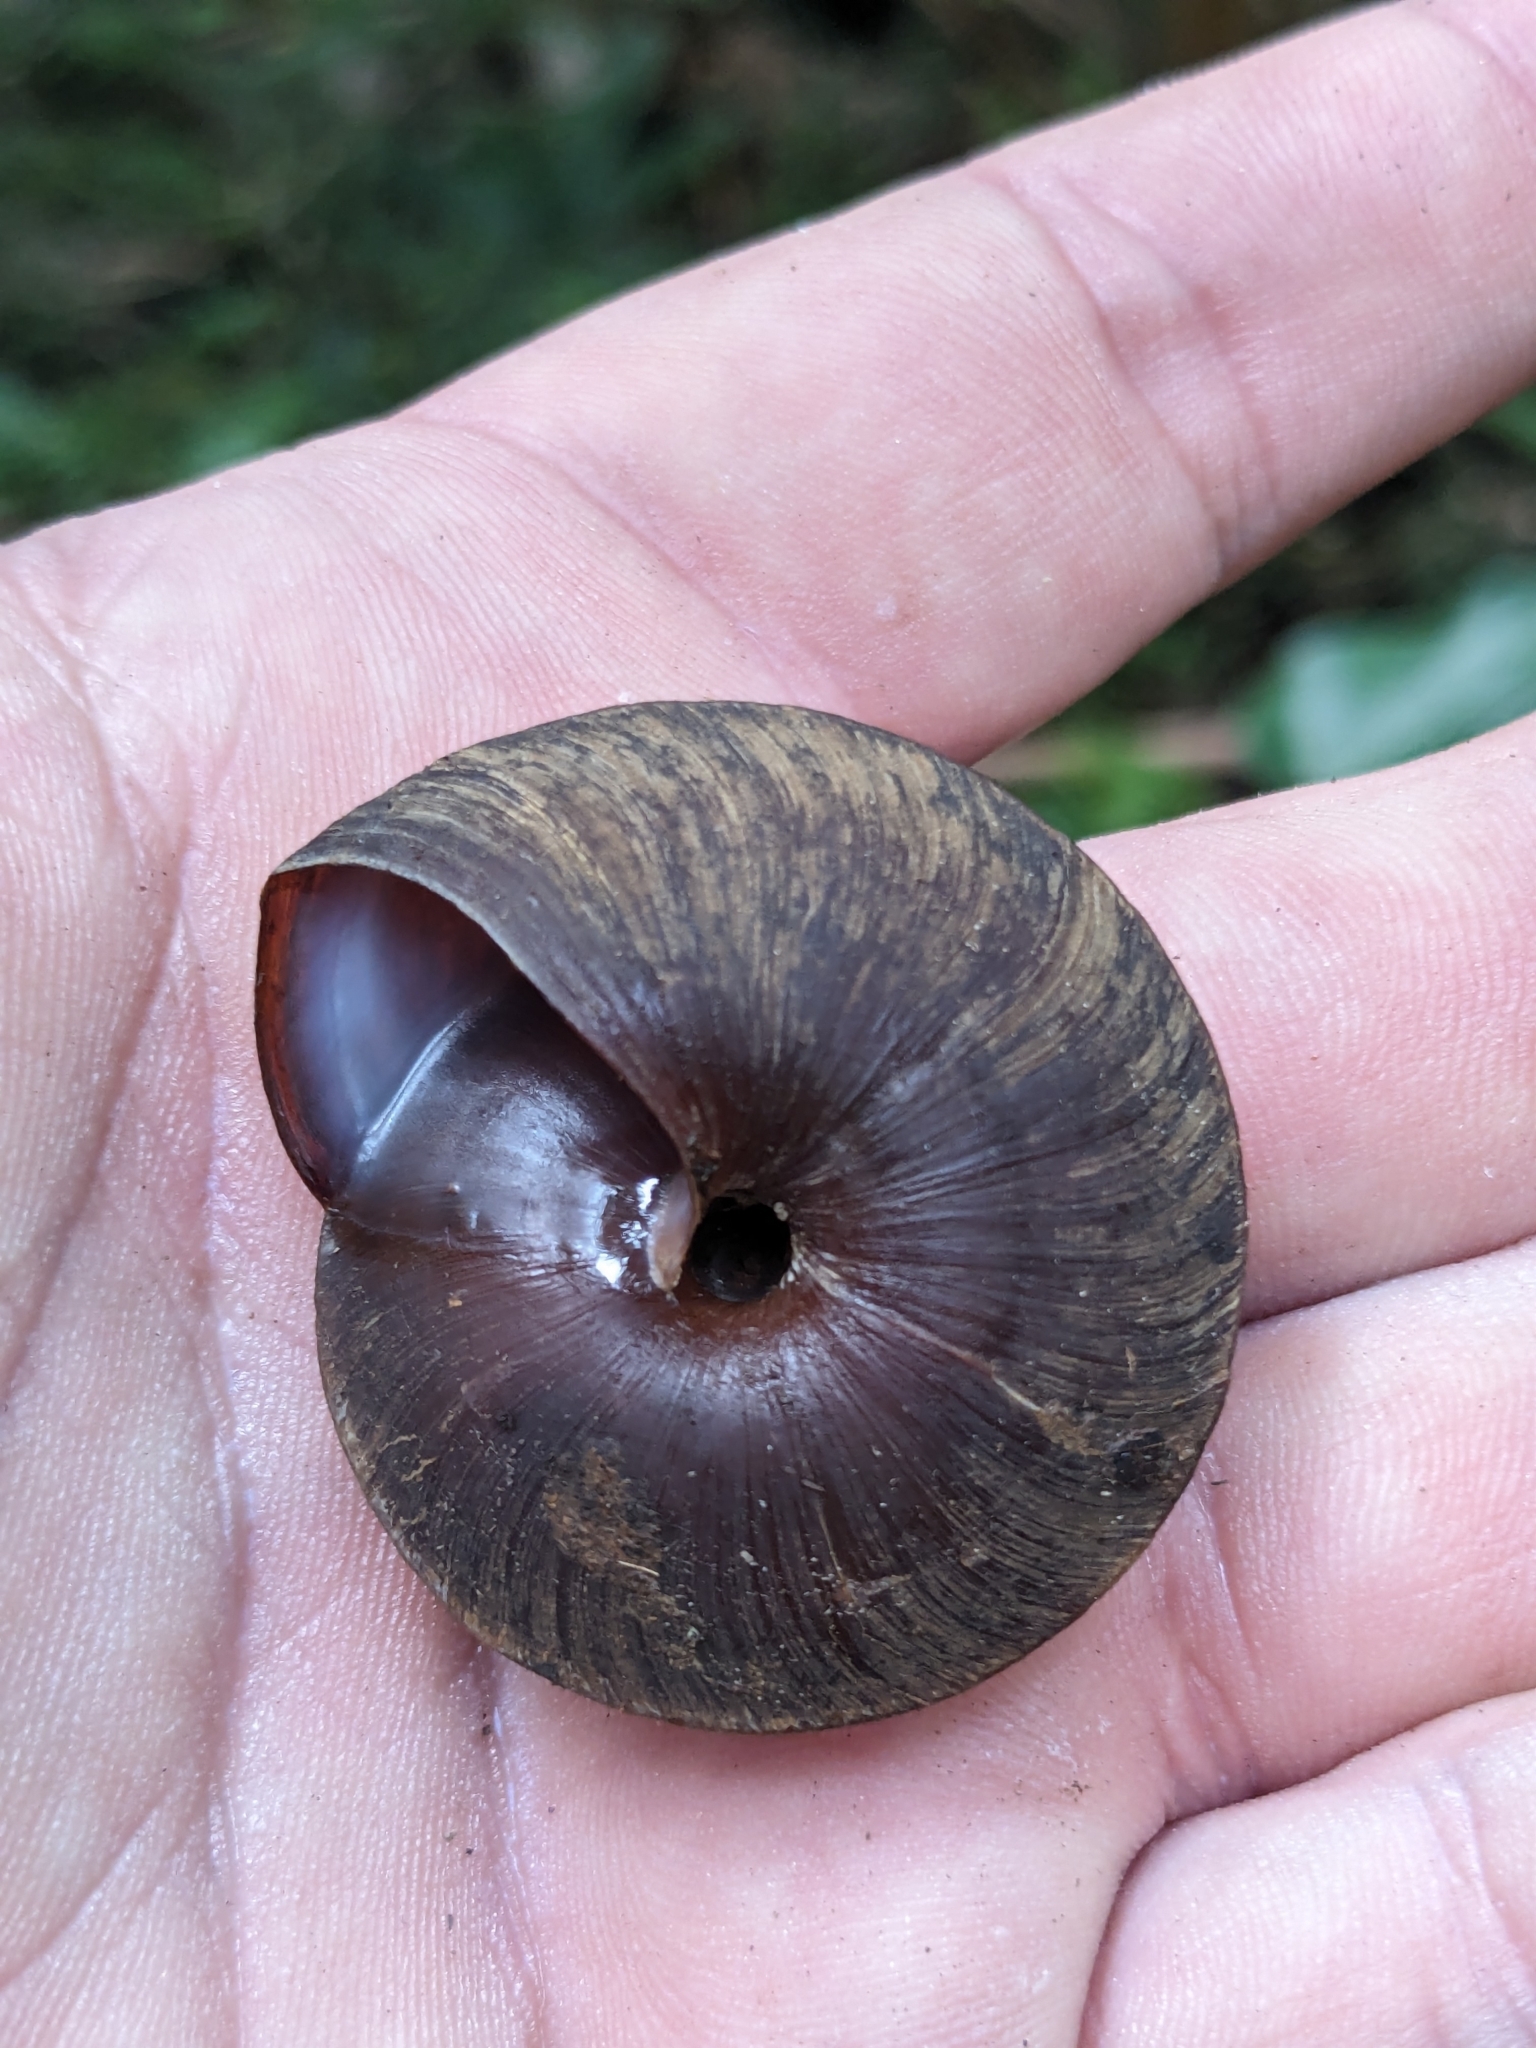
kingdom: Animalia
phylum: Mollusca
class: Gastropoda
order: Stylommatophora
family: Solaropsidae
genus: Caracolus
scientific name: Caracolus carocolla
